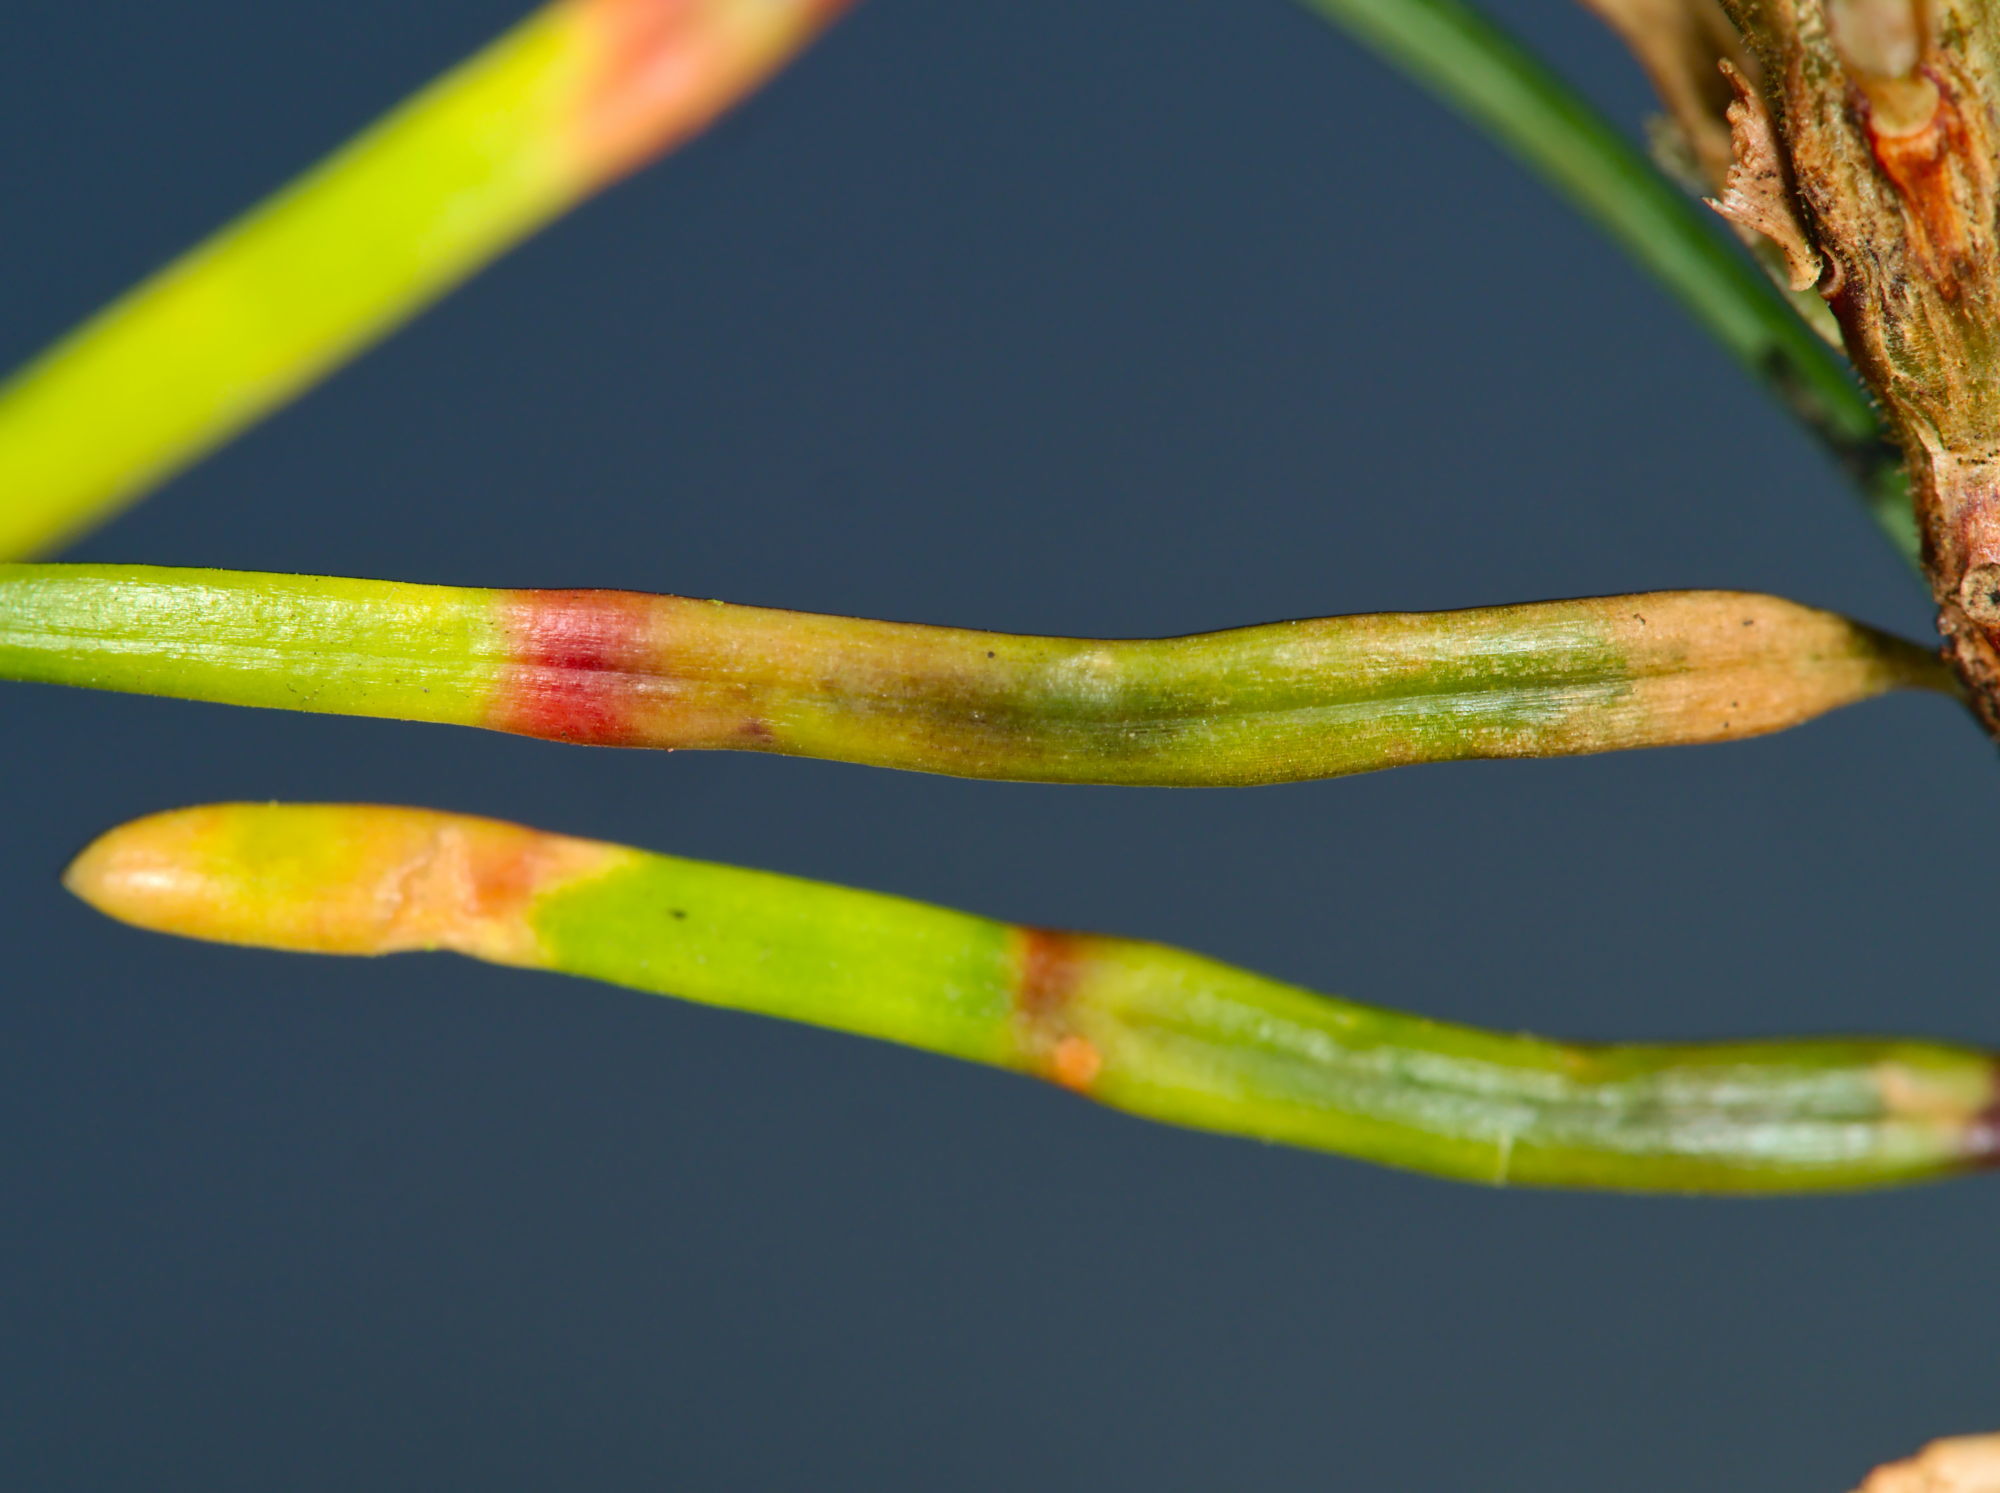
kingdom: Animalia
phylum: Arthropoda
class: Insecta
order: Diptera
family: Cecidomyiidae
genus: Contarinia
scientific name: Contarinia pseudotsugae
